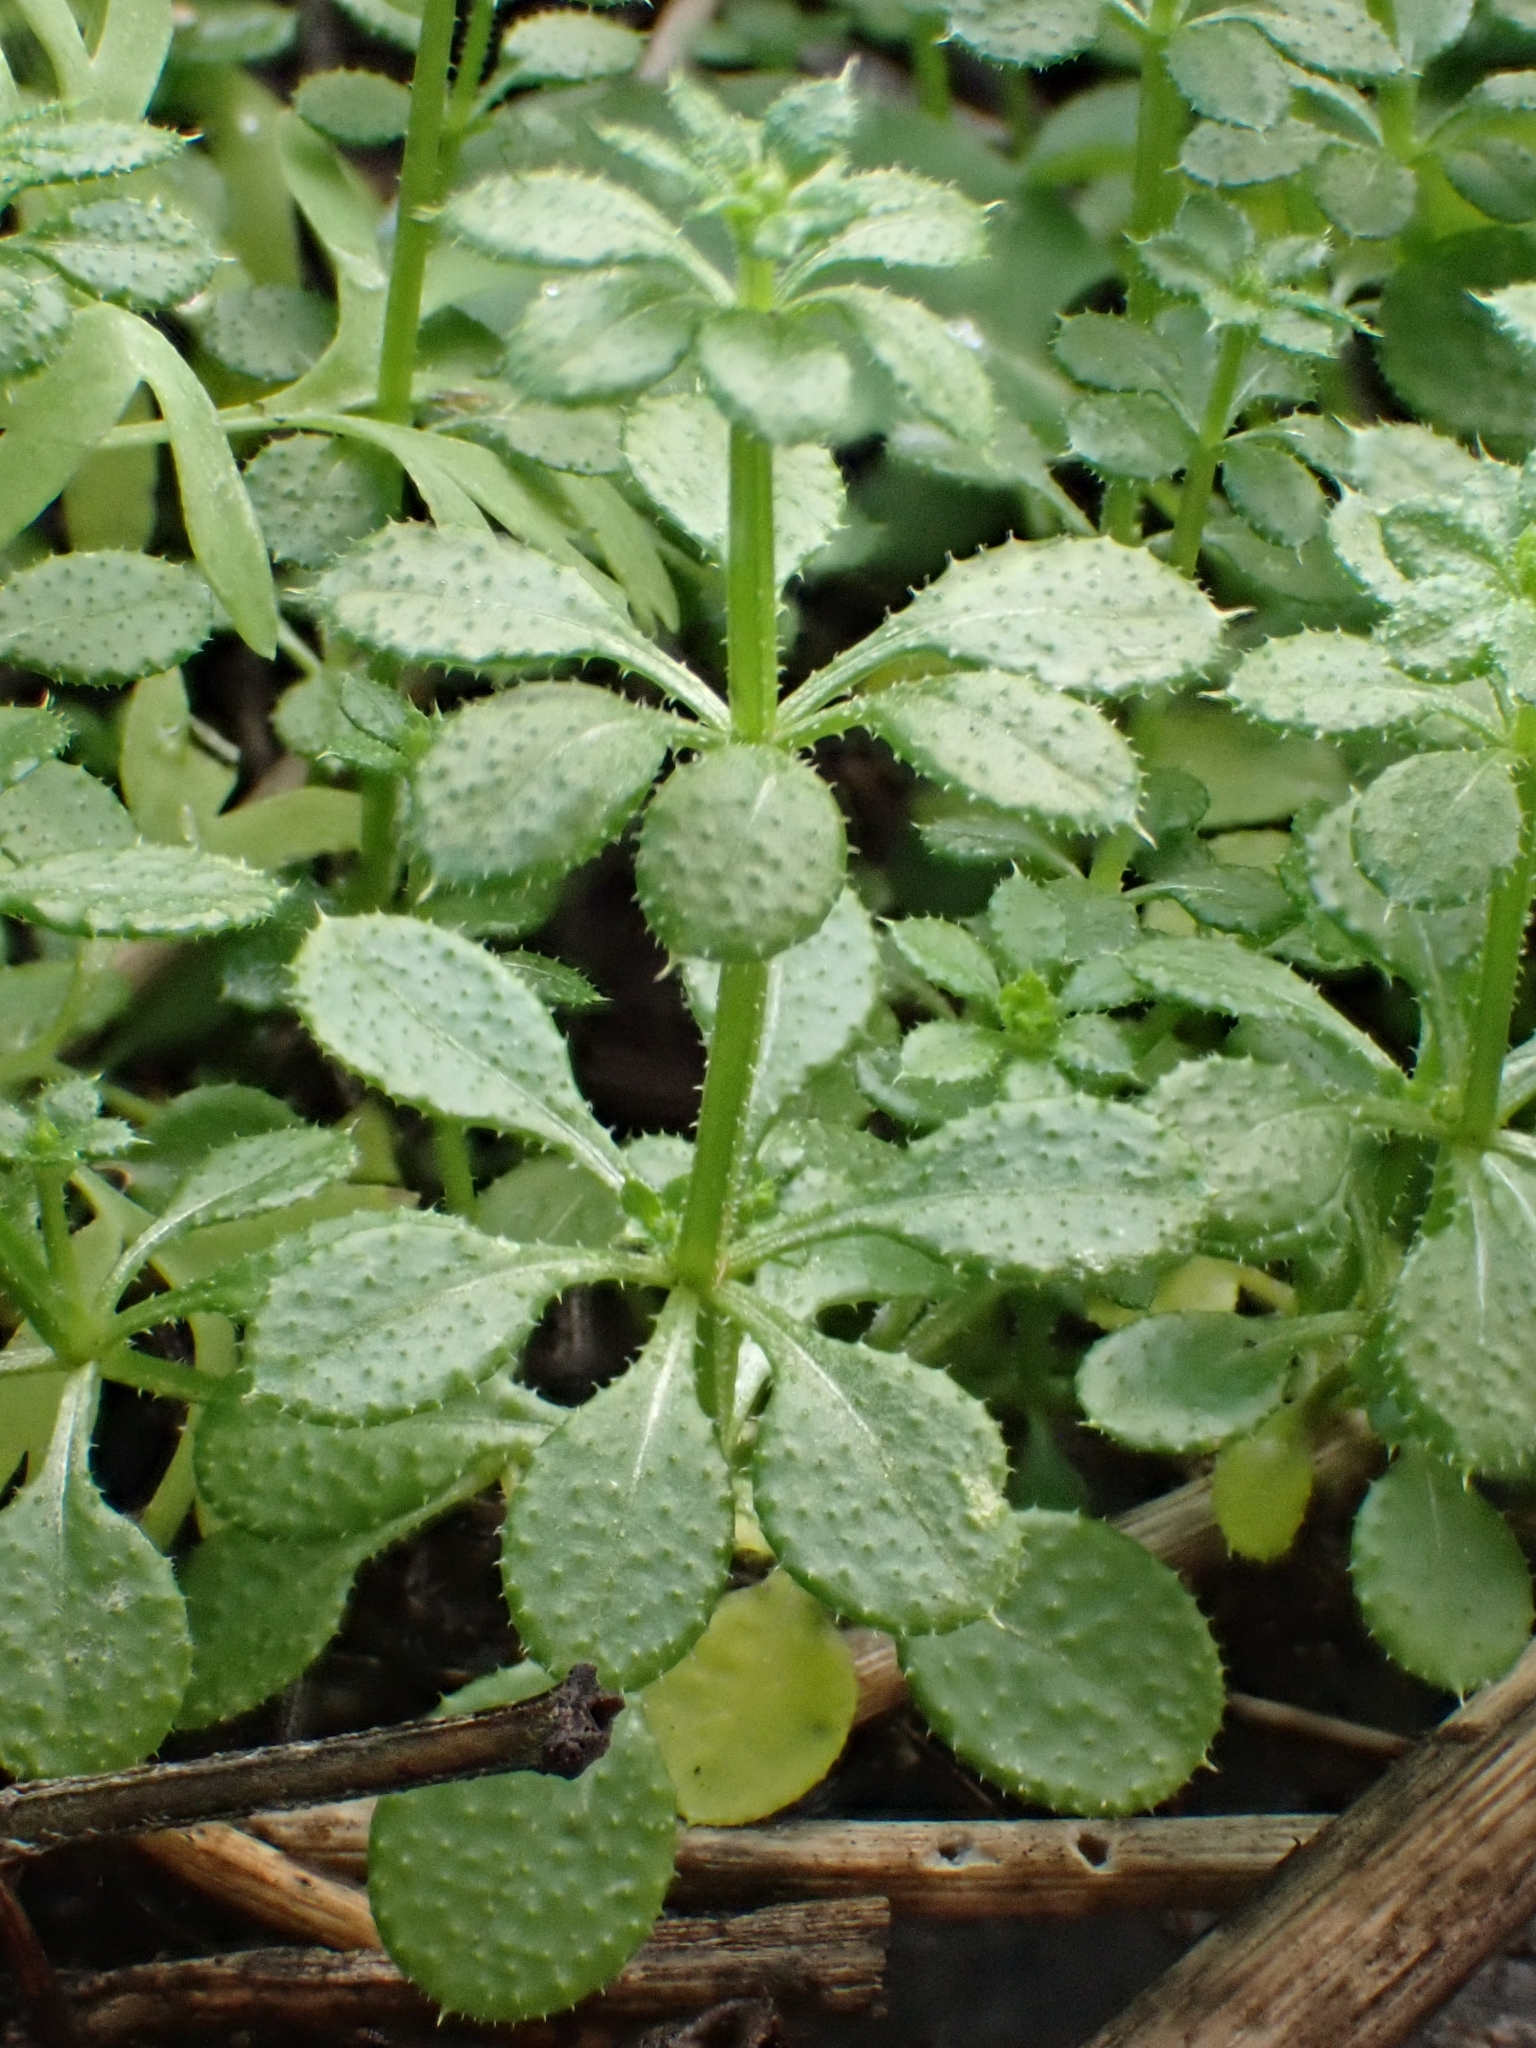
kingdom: Plantae
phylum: Tracheophyta
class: Magnoliopsida
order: Gentianales
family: Rubiaceae
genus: Galium
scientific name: Galium aparine
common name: Cleavers
